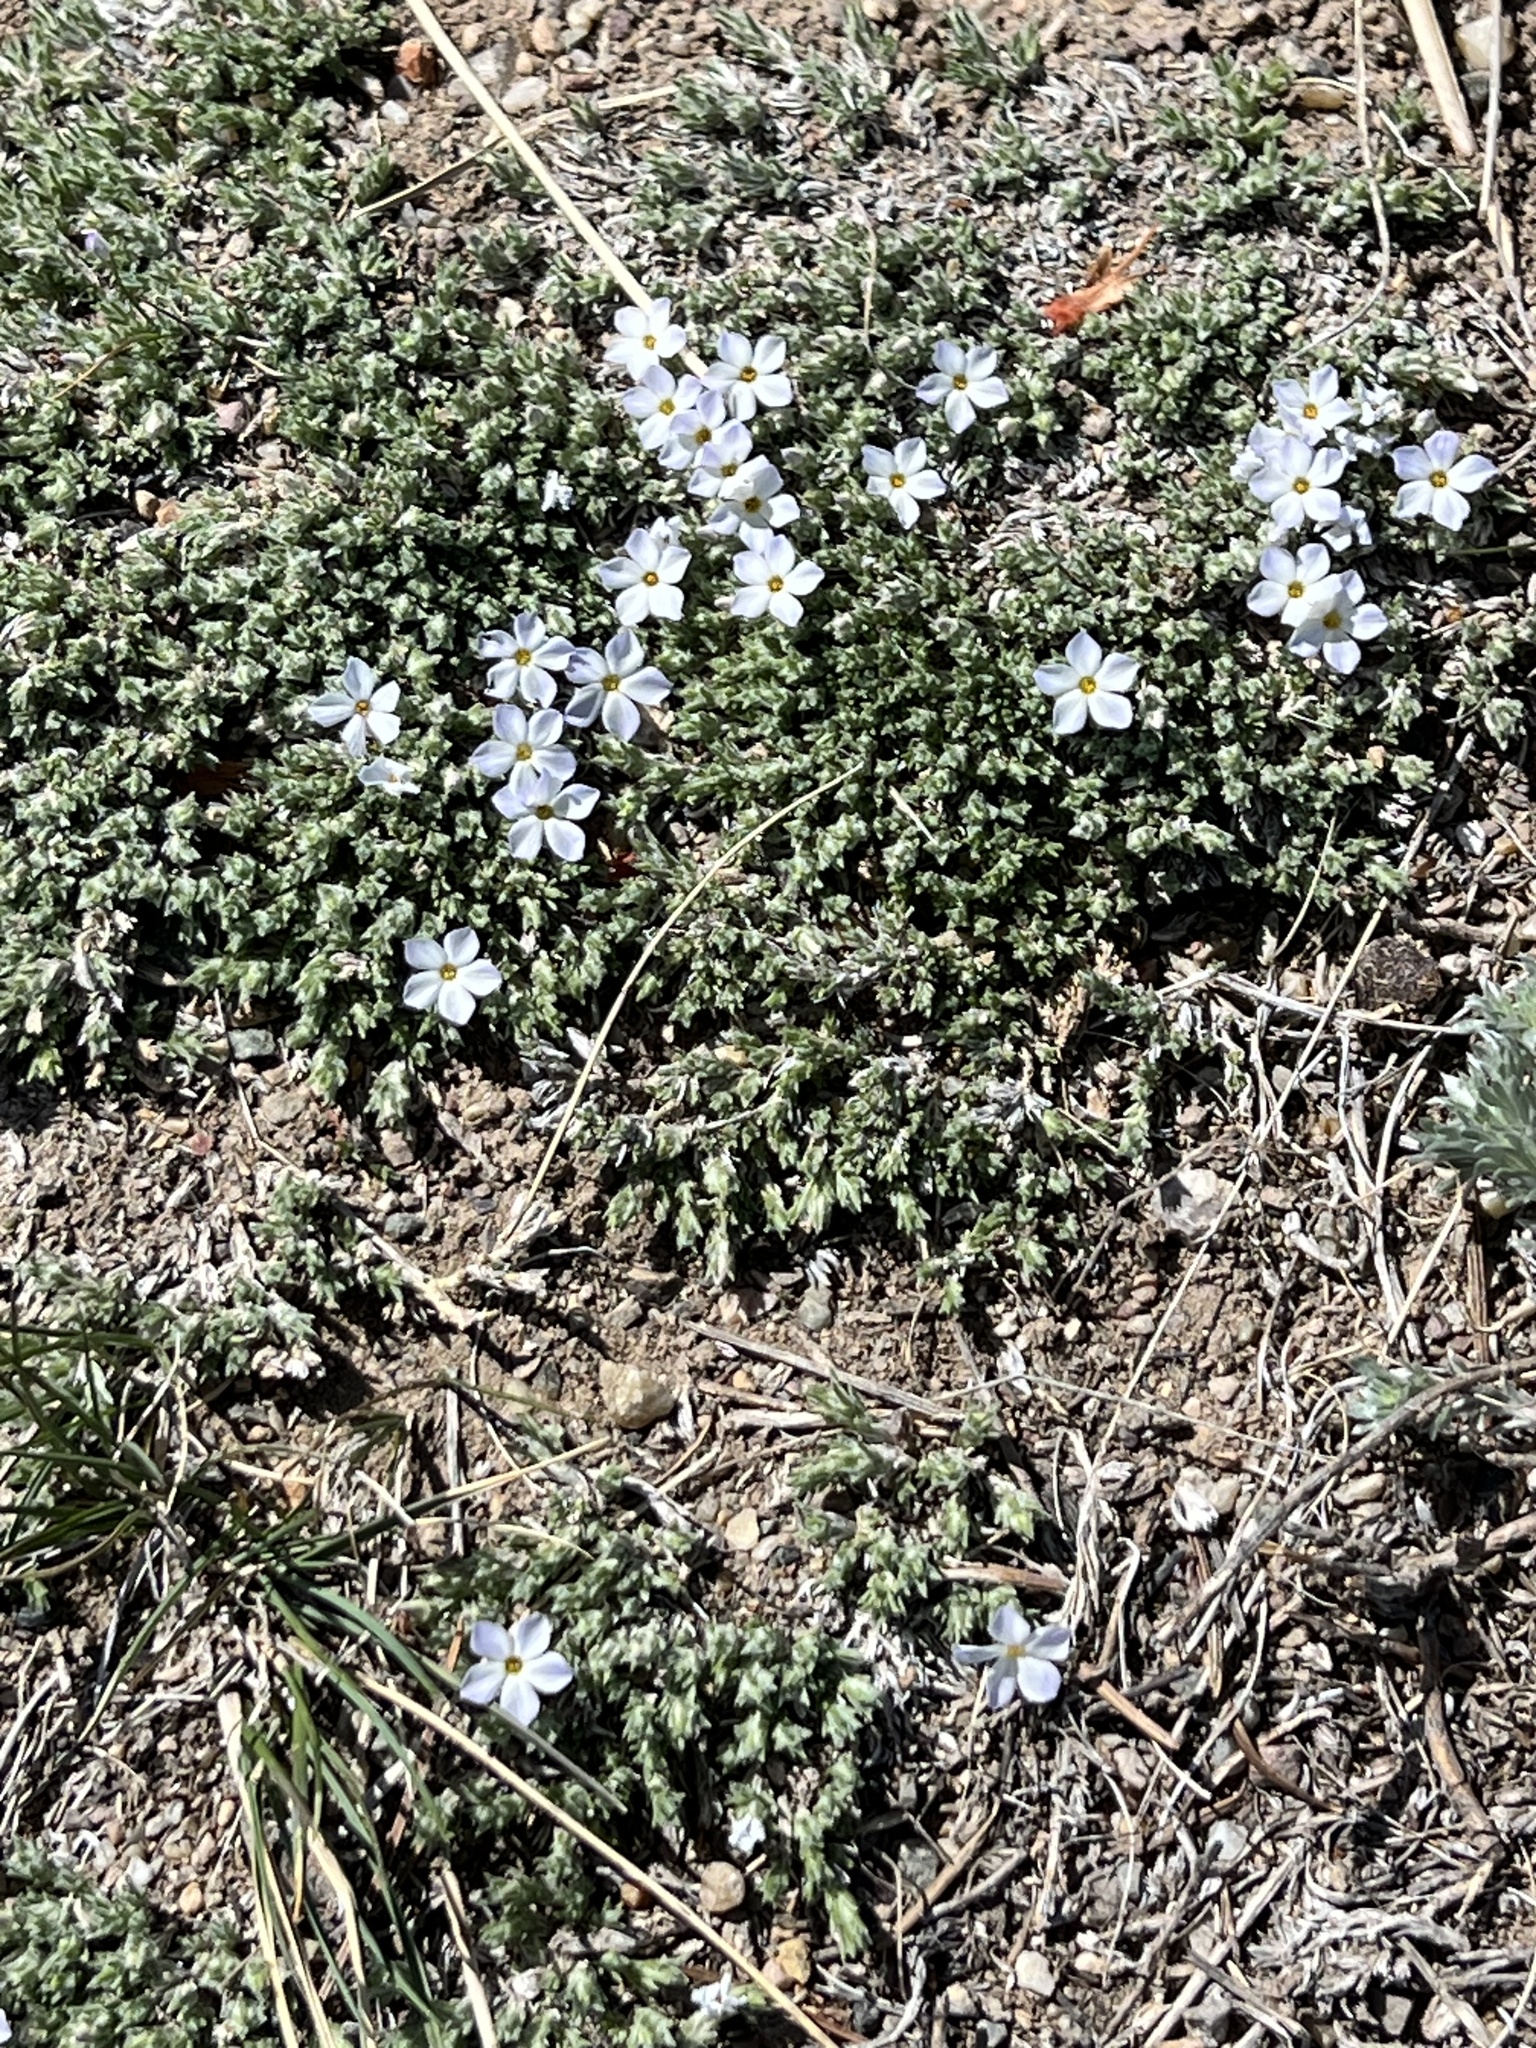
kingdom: Plantae
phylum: Tracheophyta
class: Magnoliopsida
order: Ericales
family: Polemoniaceae
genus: Phlox
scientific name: Phlox hoodii
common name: Moss phlox
